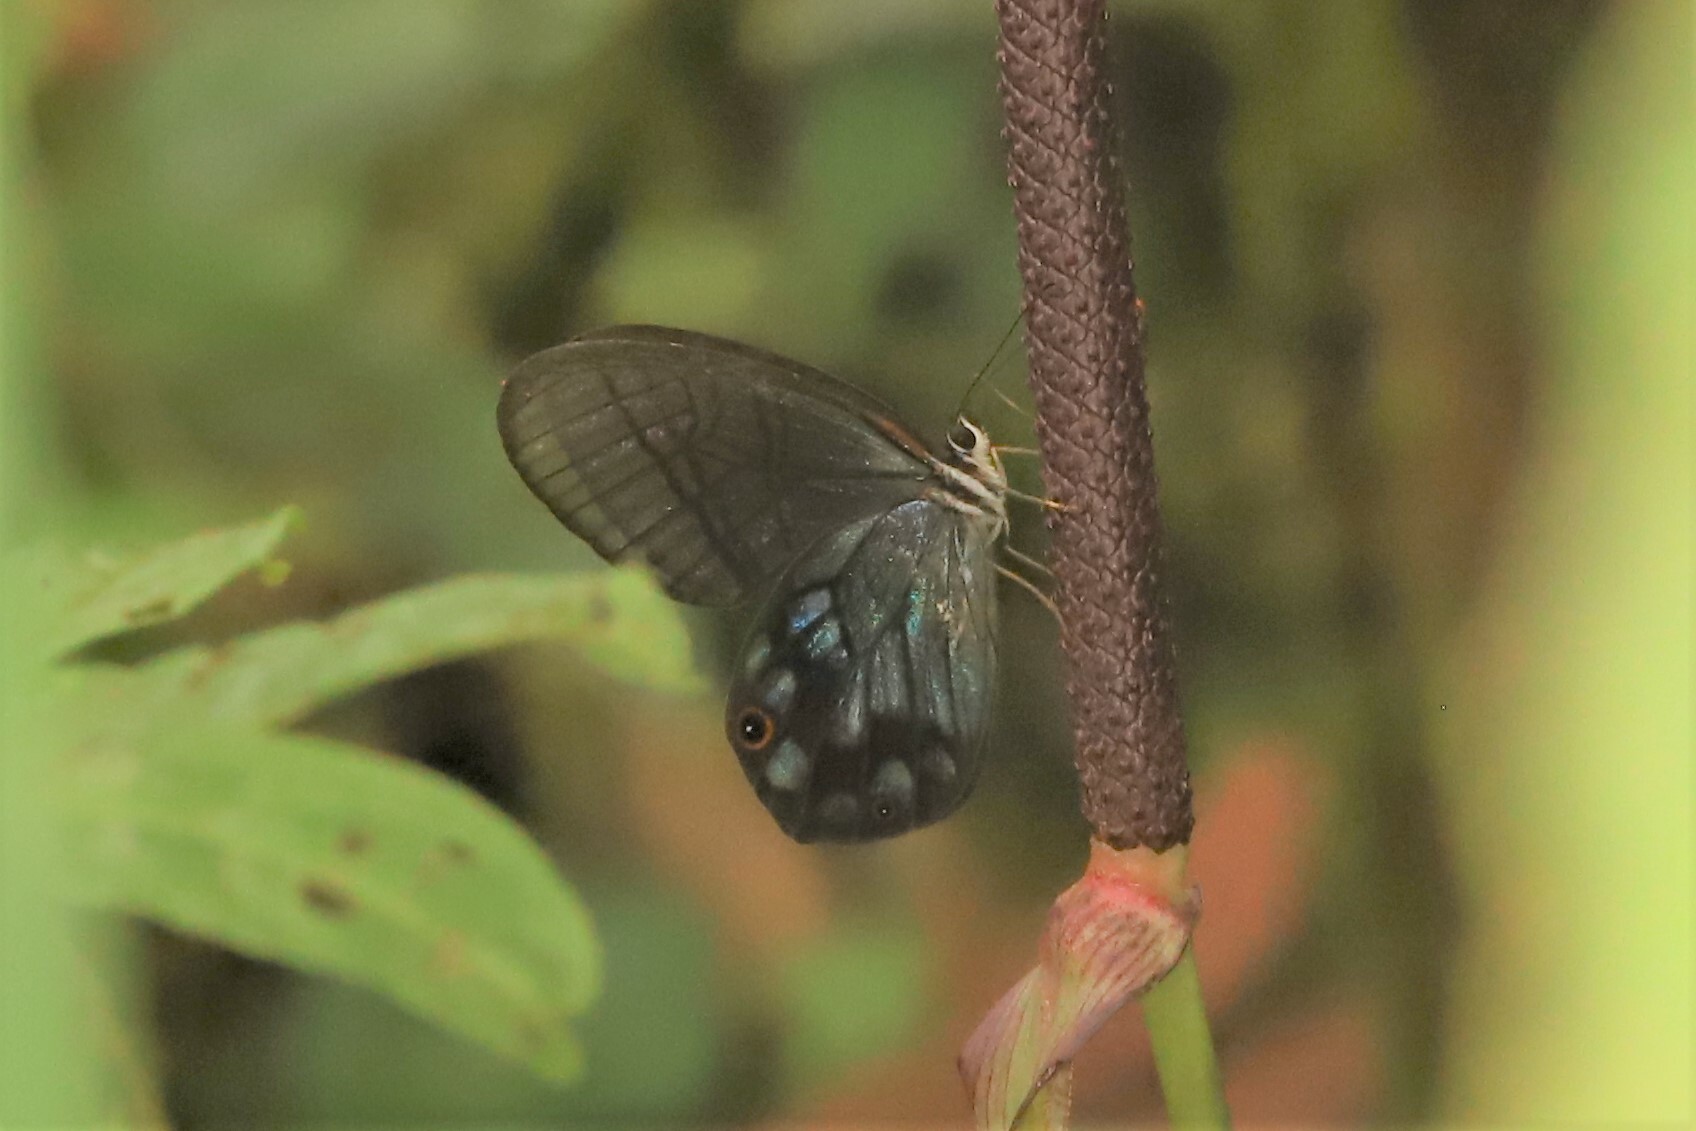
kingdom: Animalia
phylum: Arthropoda
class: Insecta
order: Lepidoptera
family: Nymphalidae
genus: Pseudohaetera
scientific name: Pseudohaetera
